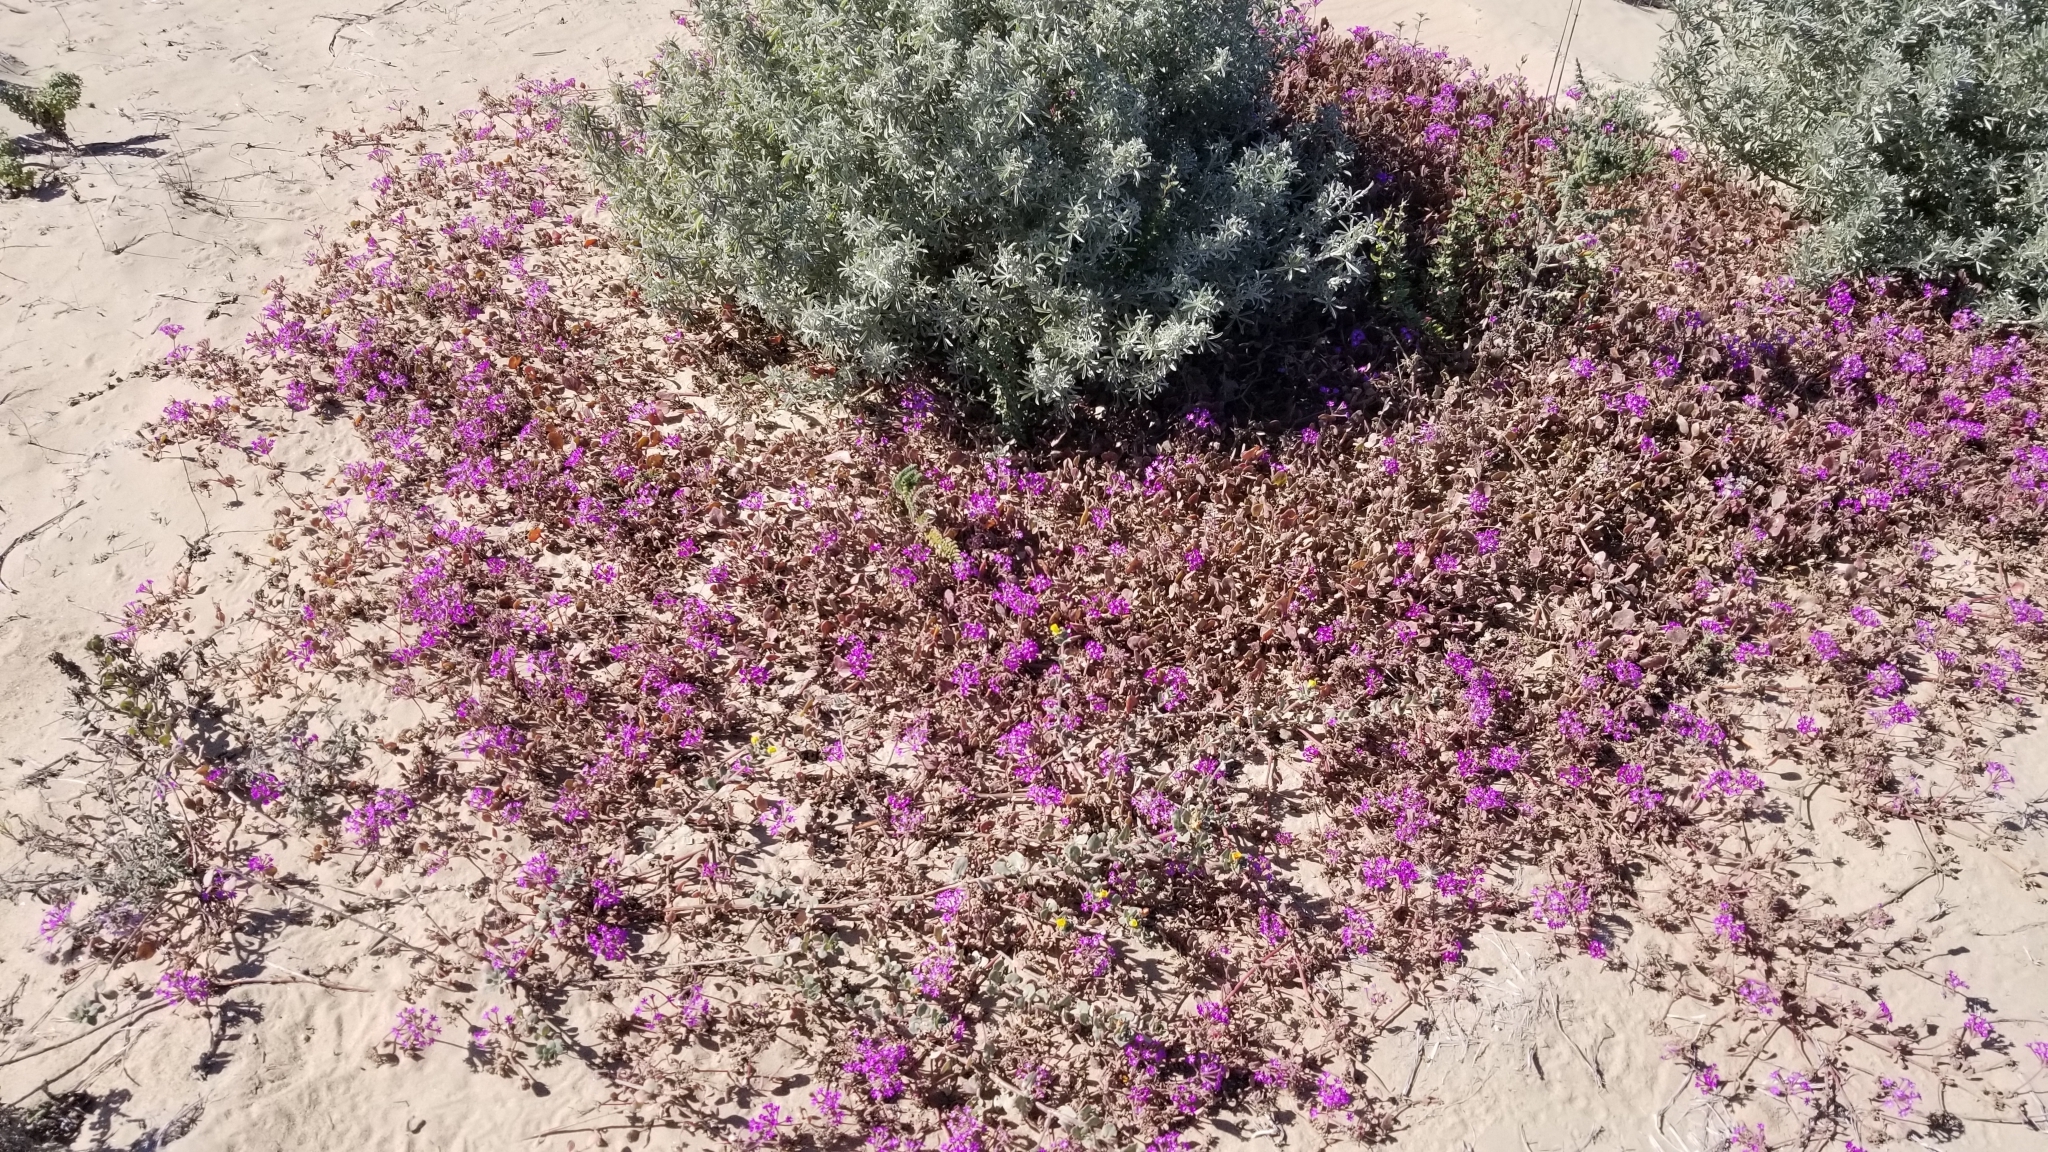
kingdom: Plantae
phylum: Tracheophyta
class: Magnoliopsida
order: Caryophyllales
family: Nyctaginaceae
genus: Abronia
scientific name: Abronia umbellata
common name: Sand-verbena
